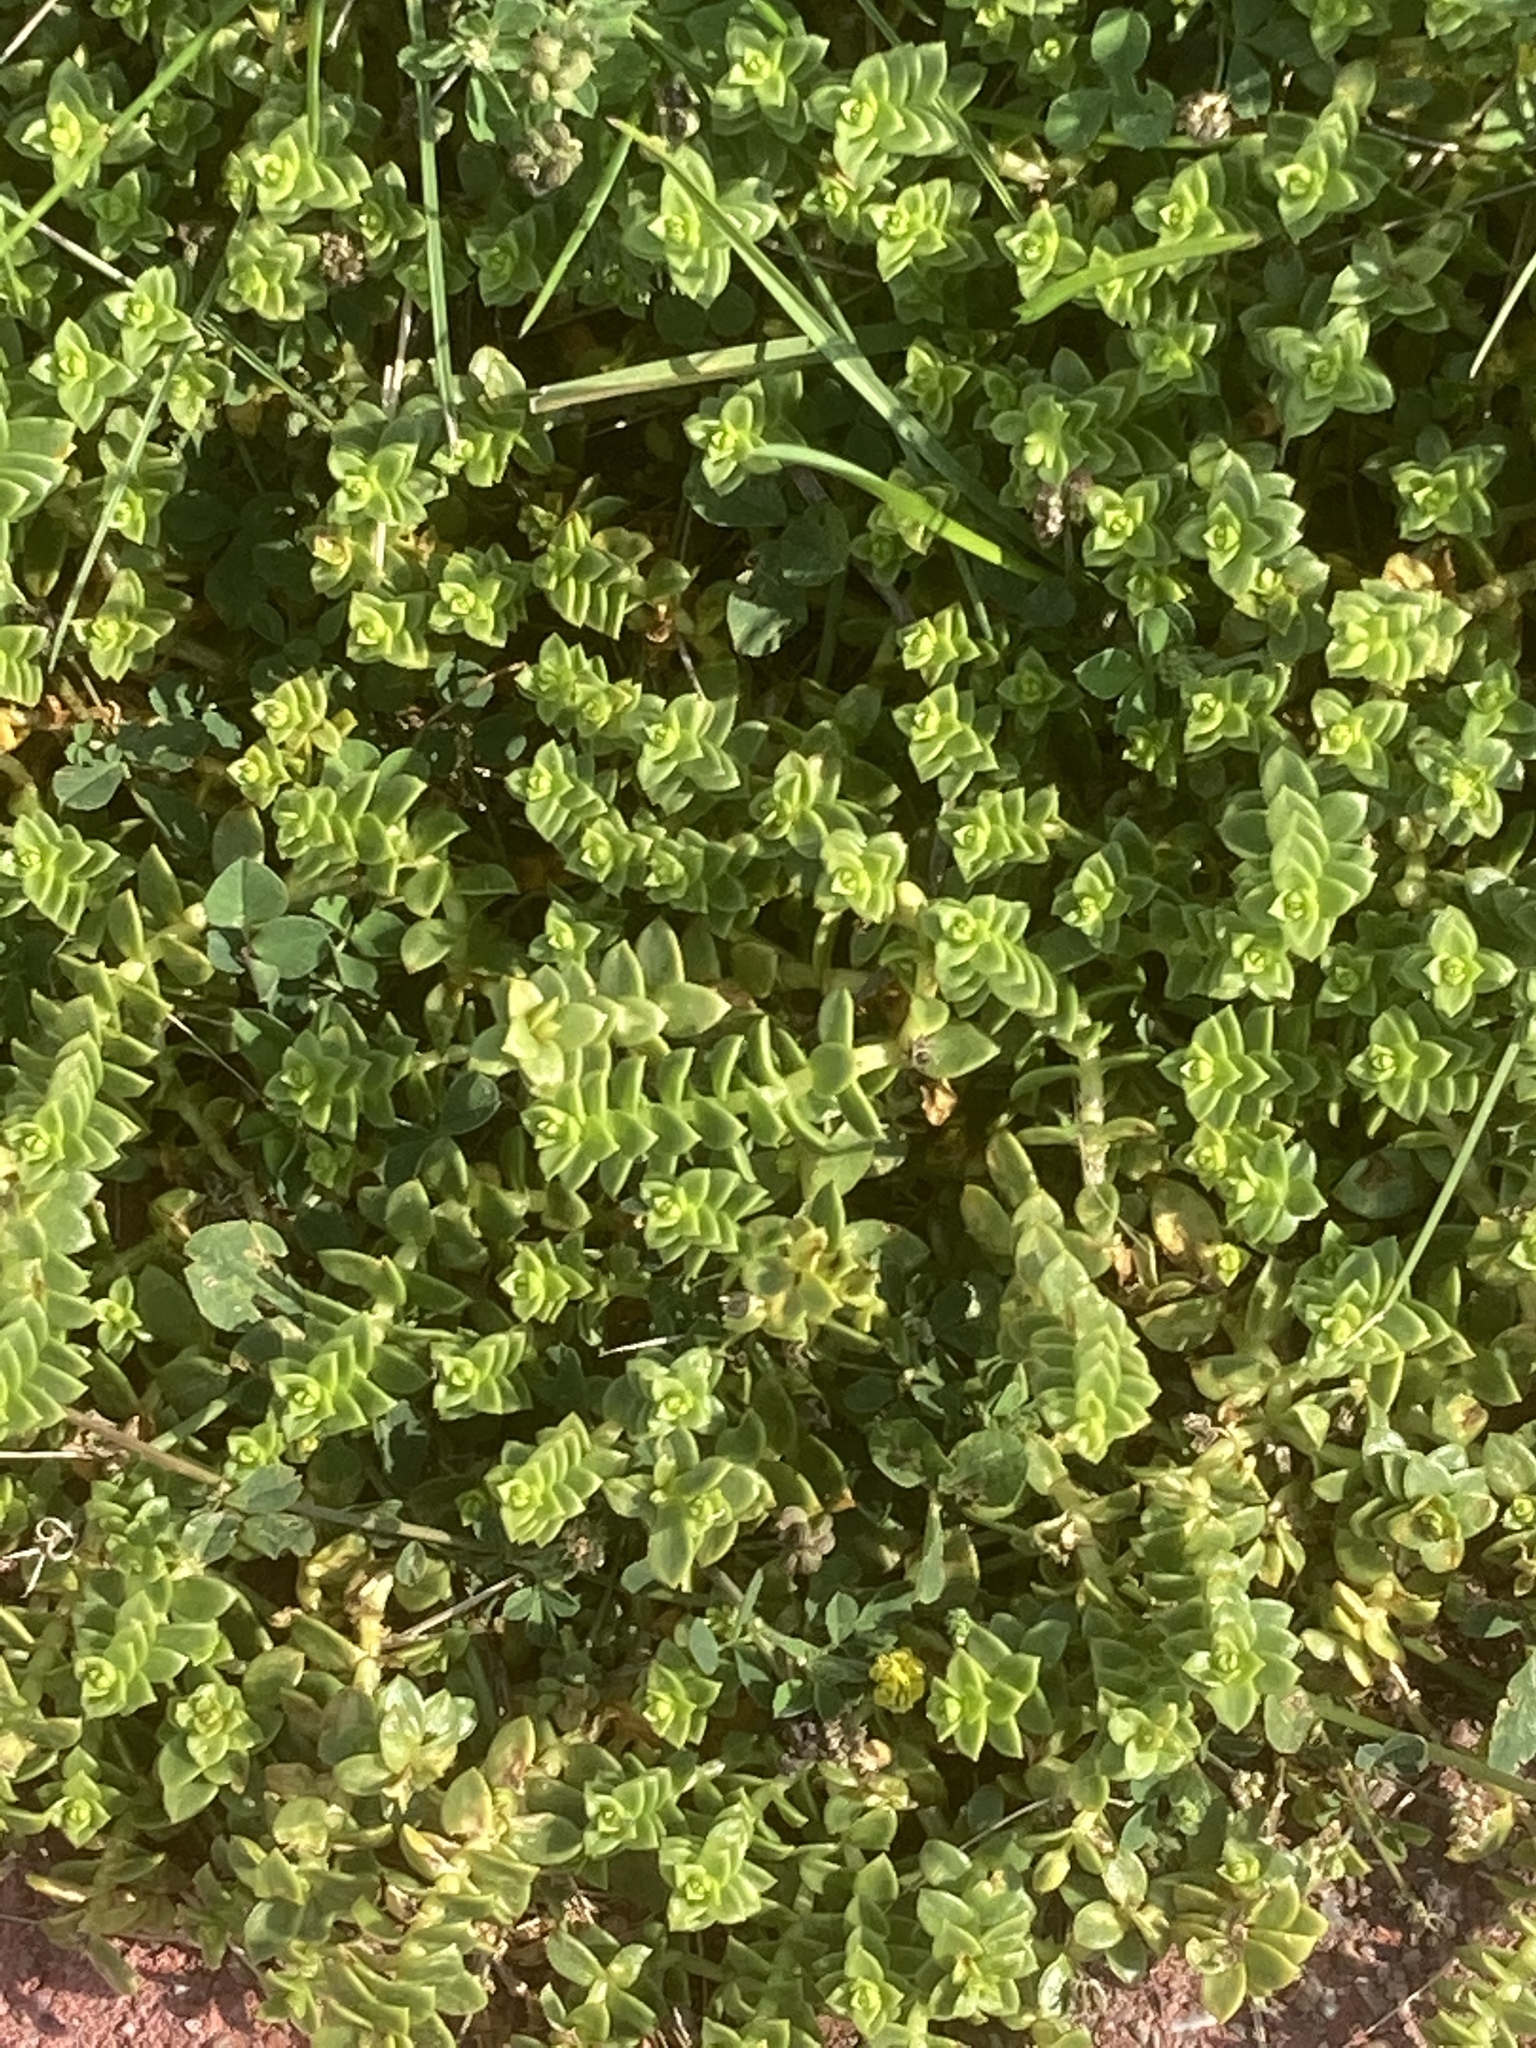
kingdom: Plantae
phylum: Tracheophyta
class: Magnoliopsida
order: Caryophyllales
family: Caryophyllaceae
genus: Honckenya
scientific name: Honckenya peploides
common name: Sea sandwort
